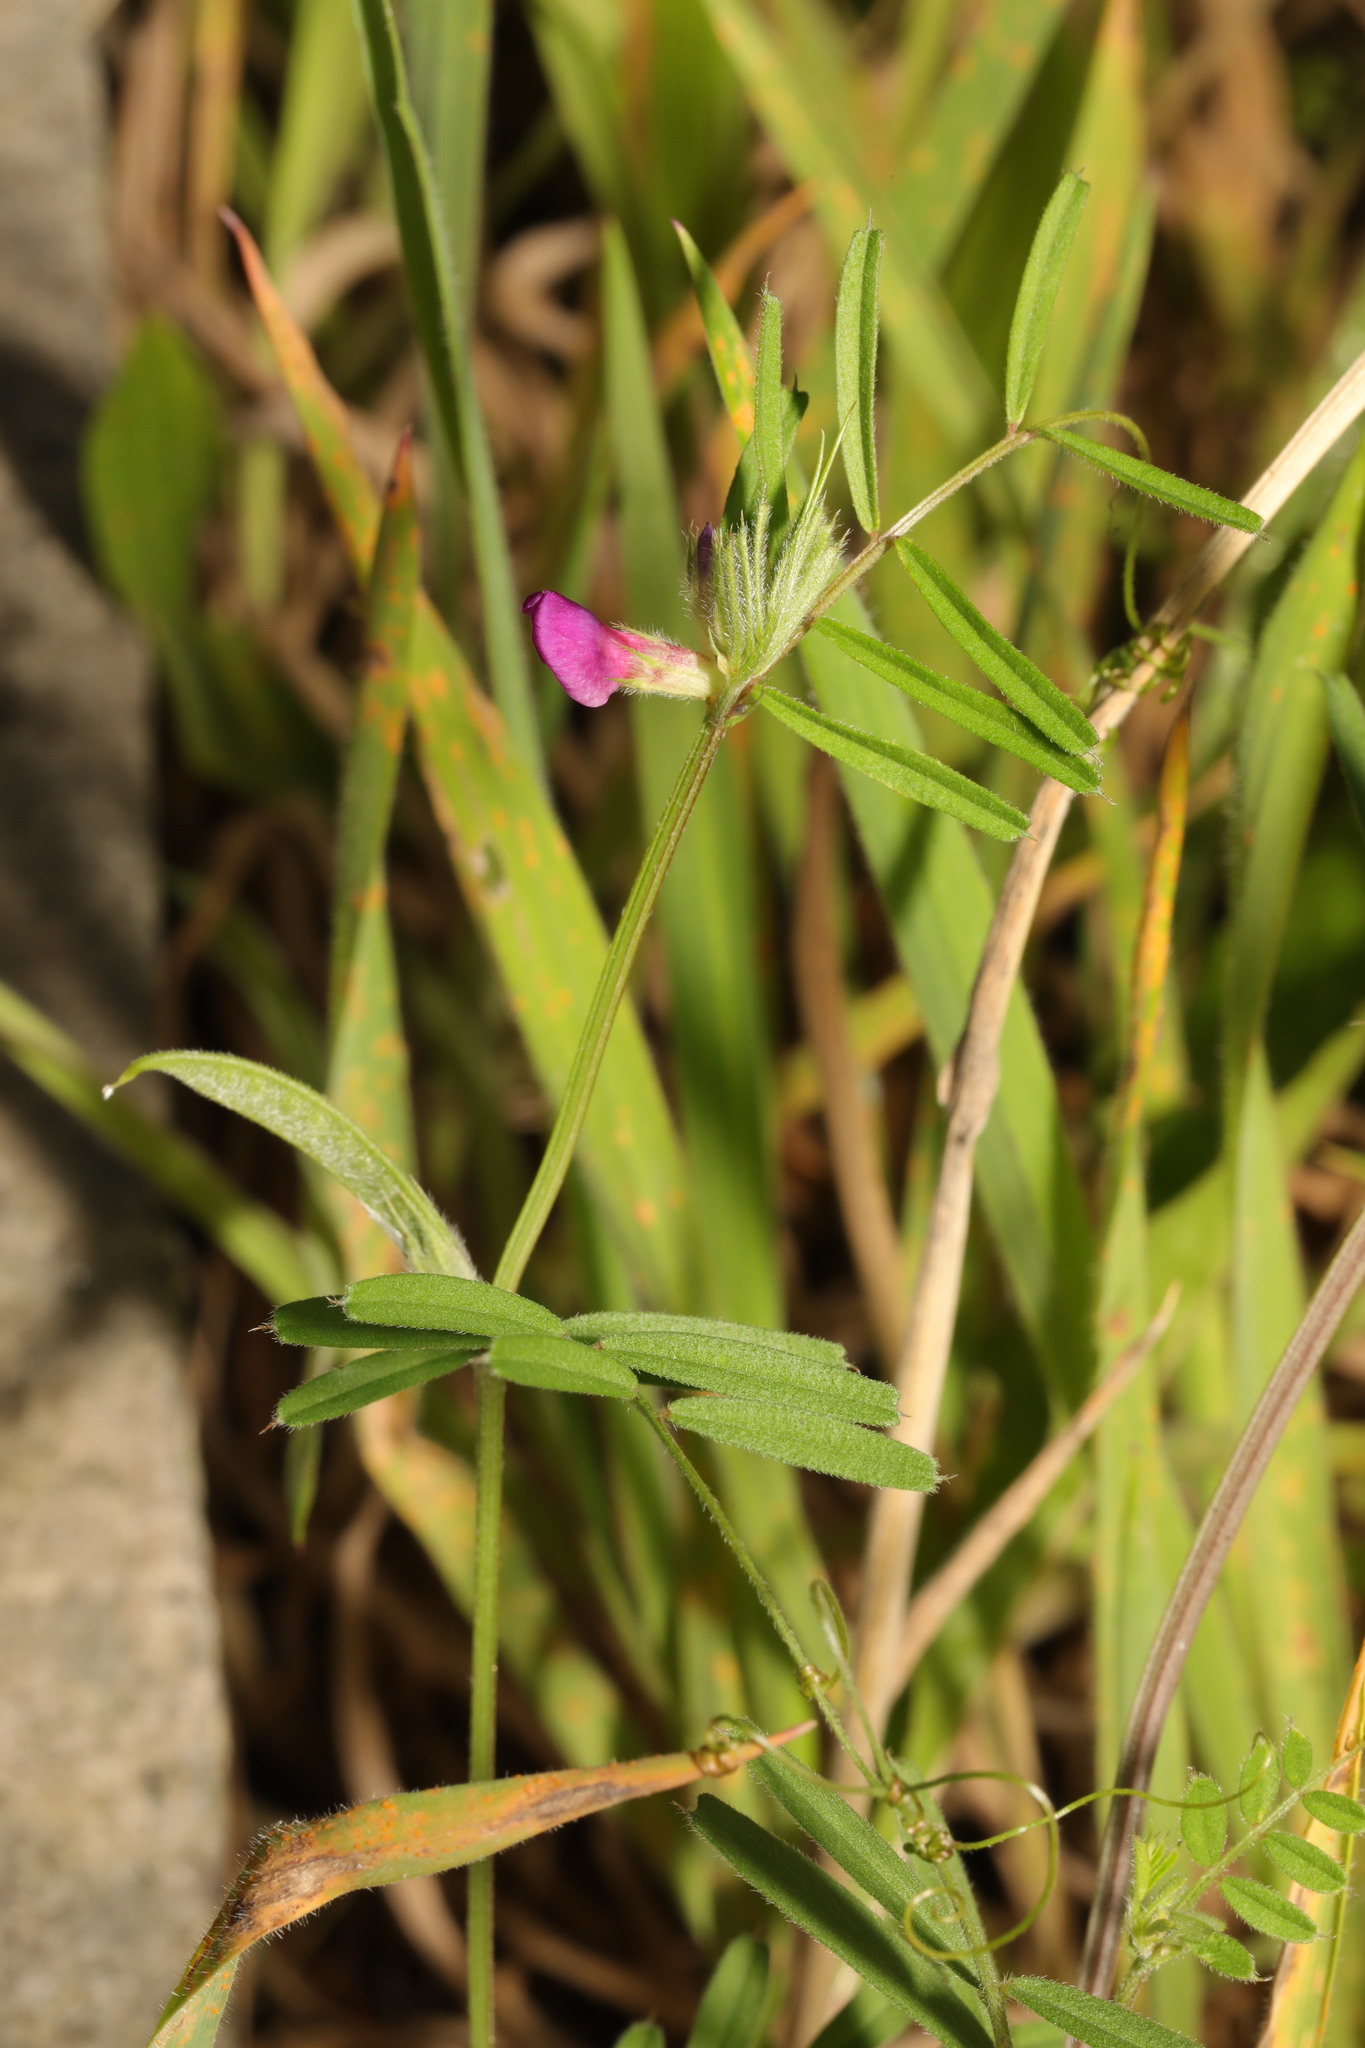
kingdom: Plantae
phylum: Tracheophyta
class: Magnoliopsida
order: Fabales
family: Fabaceae
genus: Vicia
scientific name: Vicia sativa
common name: Garden vetch
